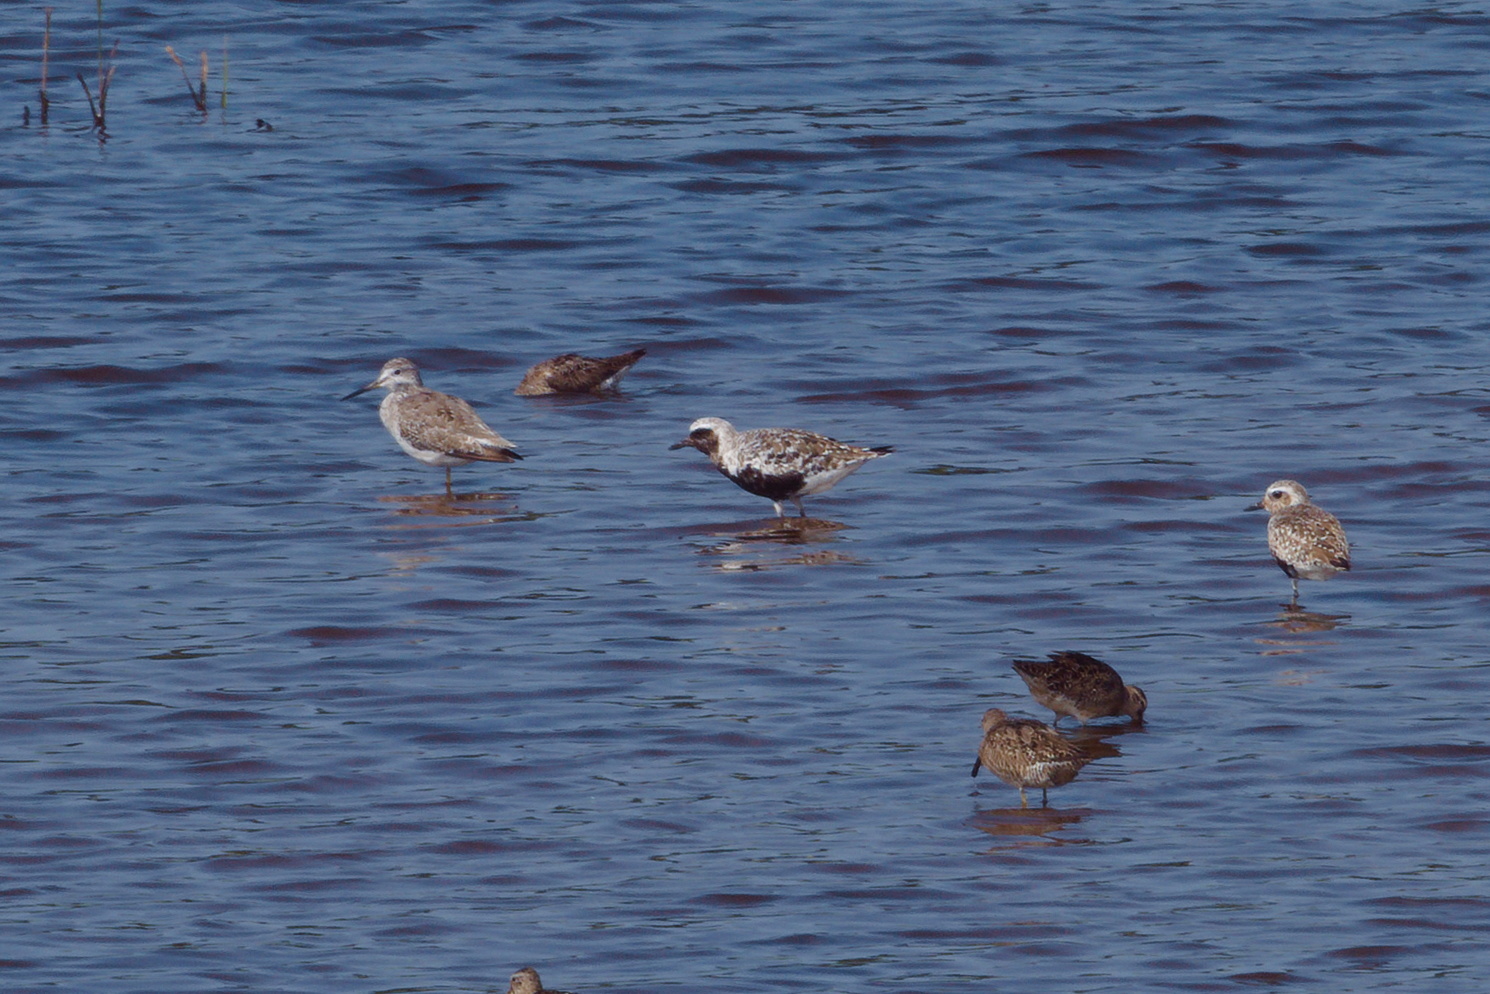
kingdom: Animalia
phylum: Chordata
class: Aves
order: Charadriiformes
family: Charadriidae
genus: Pluvialis
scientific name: Pluvialis squatarola
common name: Grey plover
